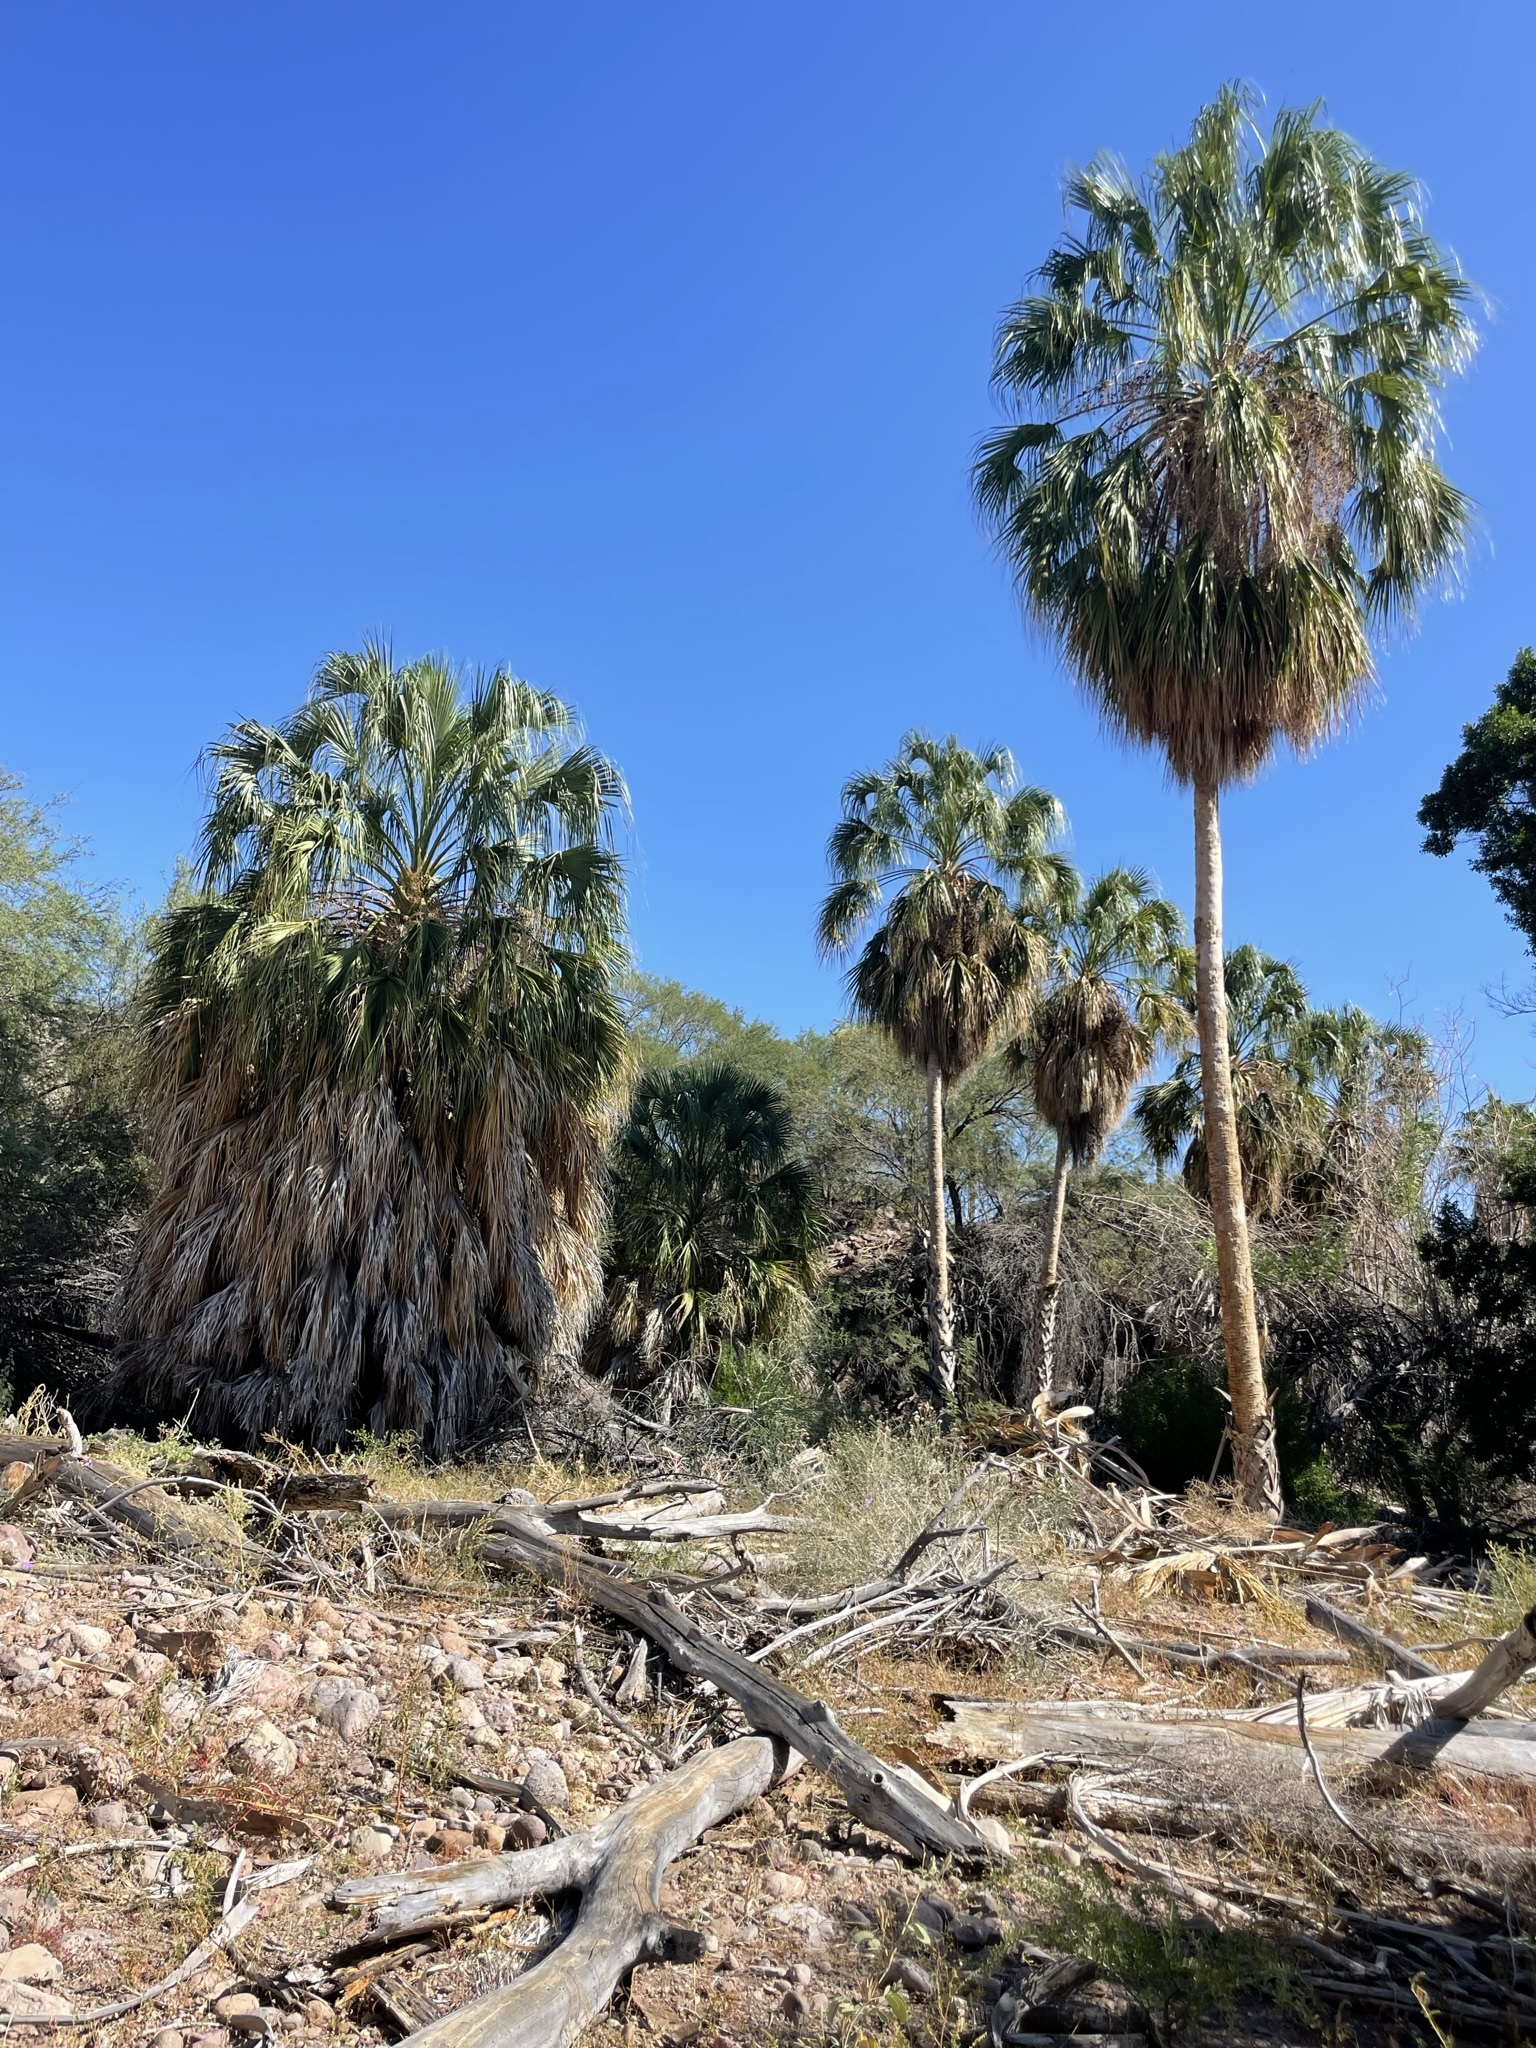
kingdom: Plantae
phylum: Tracheophyta
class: Liliopsida
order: Arecales
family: Arecaceae
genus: Sabal
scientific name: Sabal uresana
